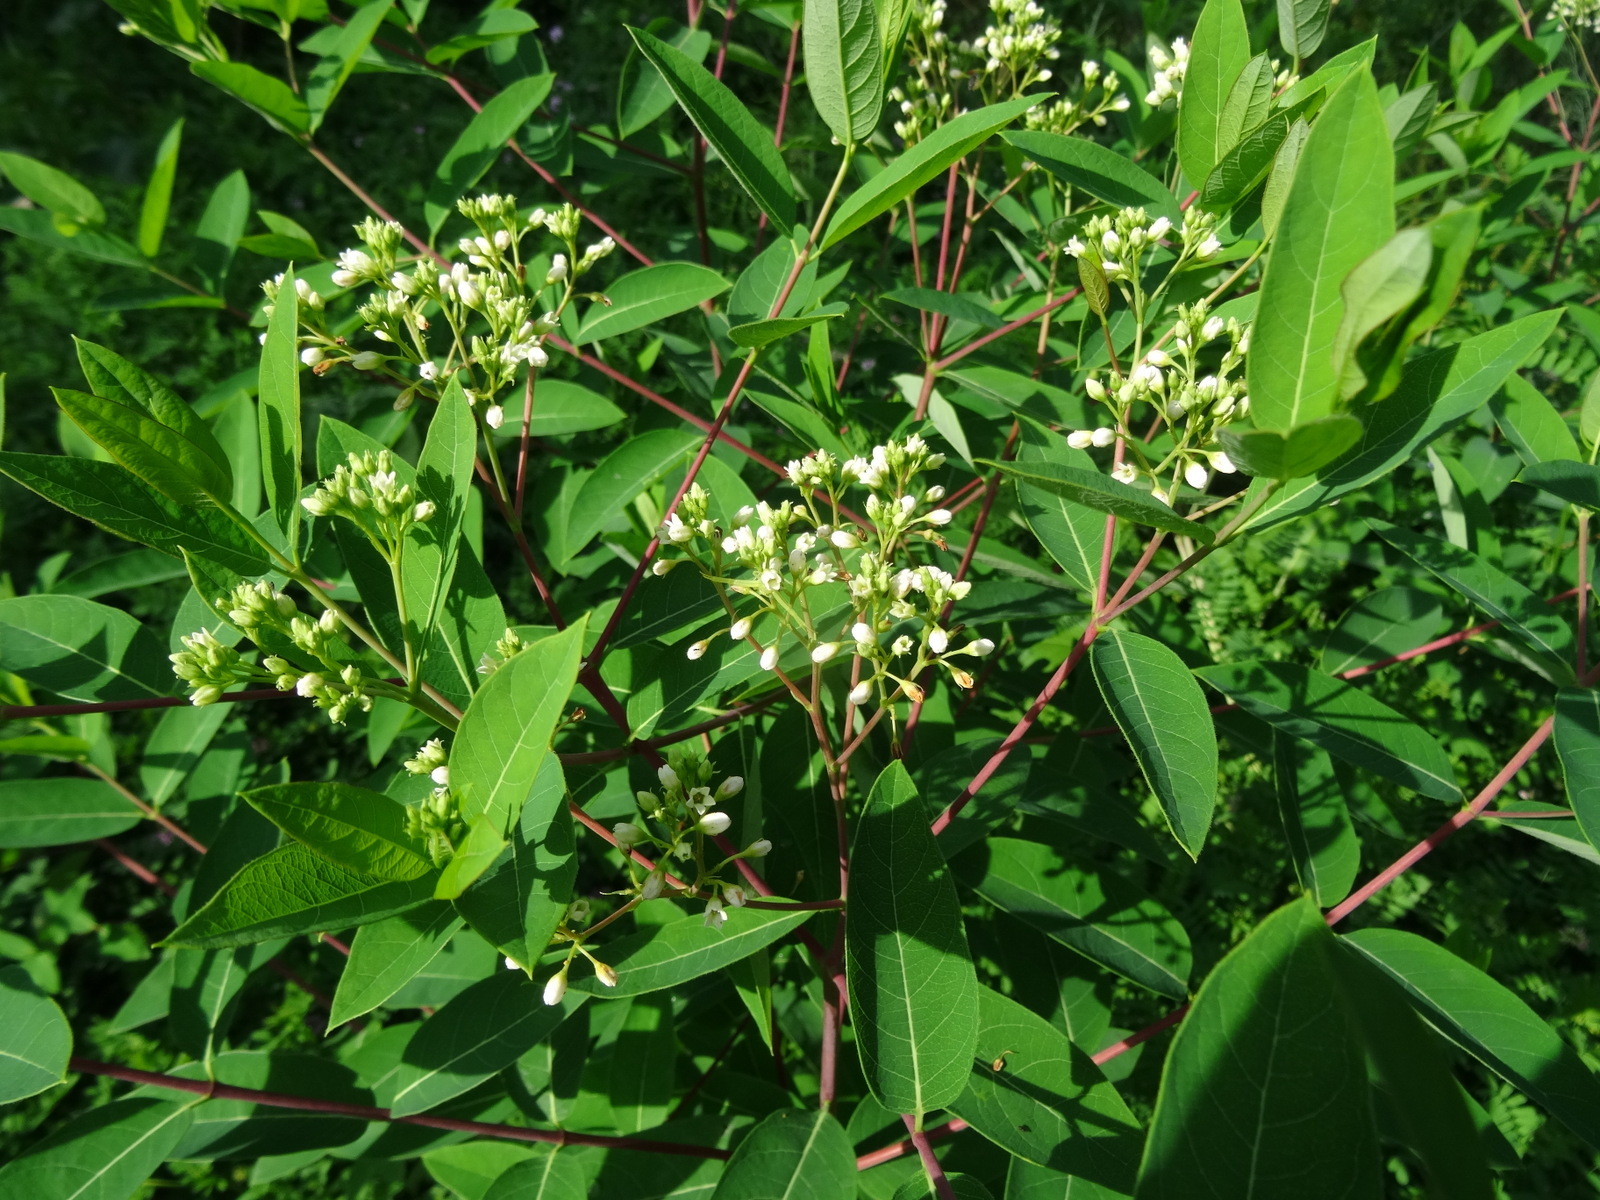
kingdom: Plantae
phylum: Tracheophyta
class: Magnoliopsida
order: Gentianales
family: Apocynaceae
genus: Apocynum
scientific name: Apocynum cannabinum
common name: Hemp dogbane
